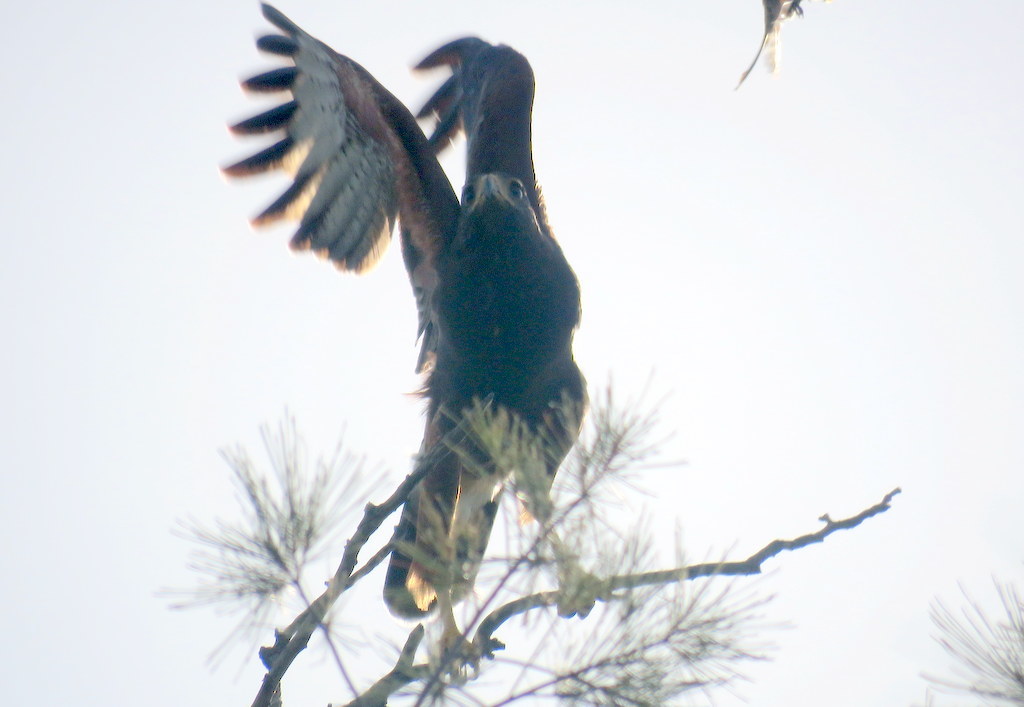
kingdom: Animalia
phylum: Chordata
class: Aves
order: Accipitriformes
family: Accipitridae
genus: Parabuteo
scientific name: Parabuteo unicinctus
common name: Harris's hawk
